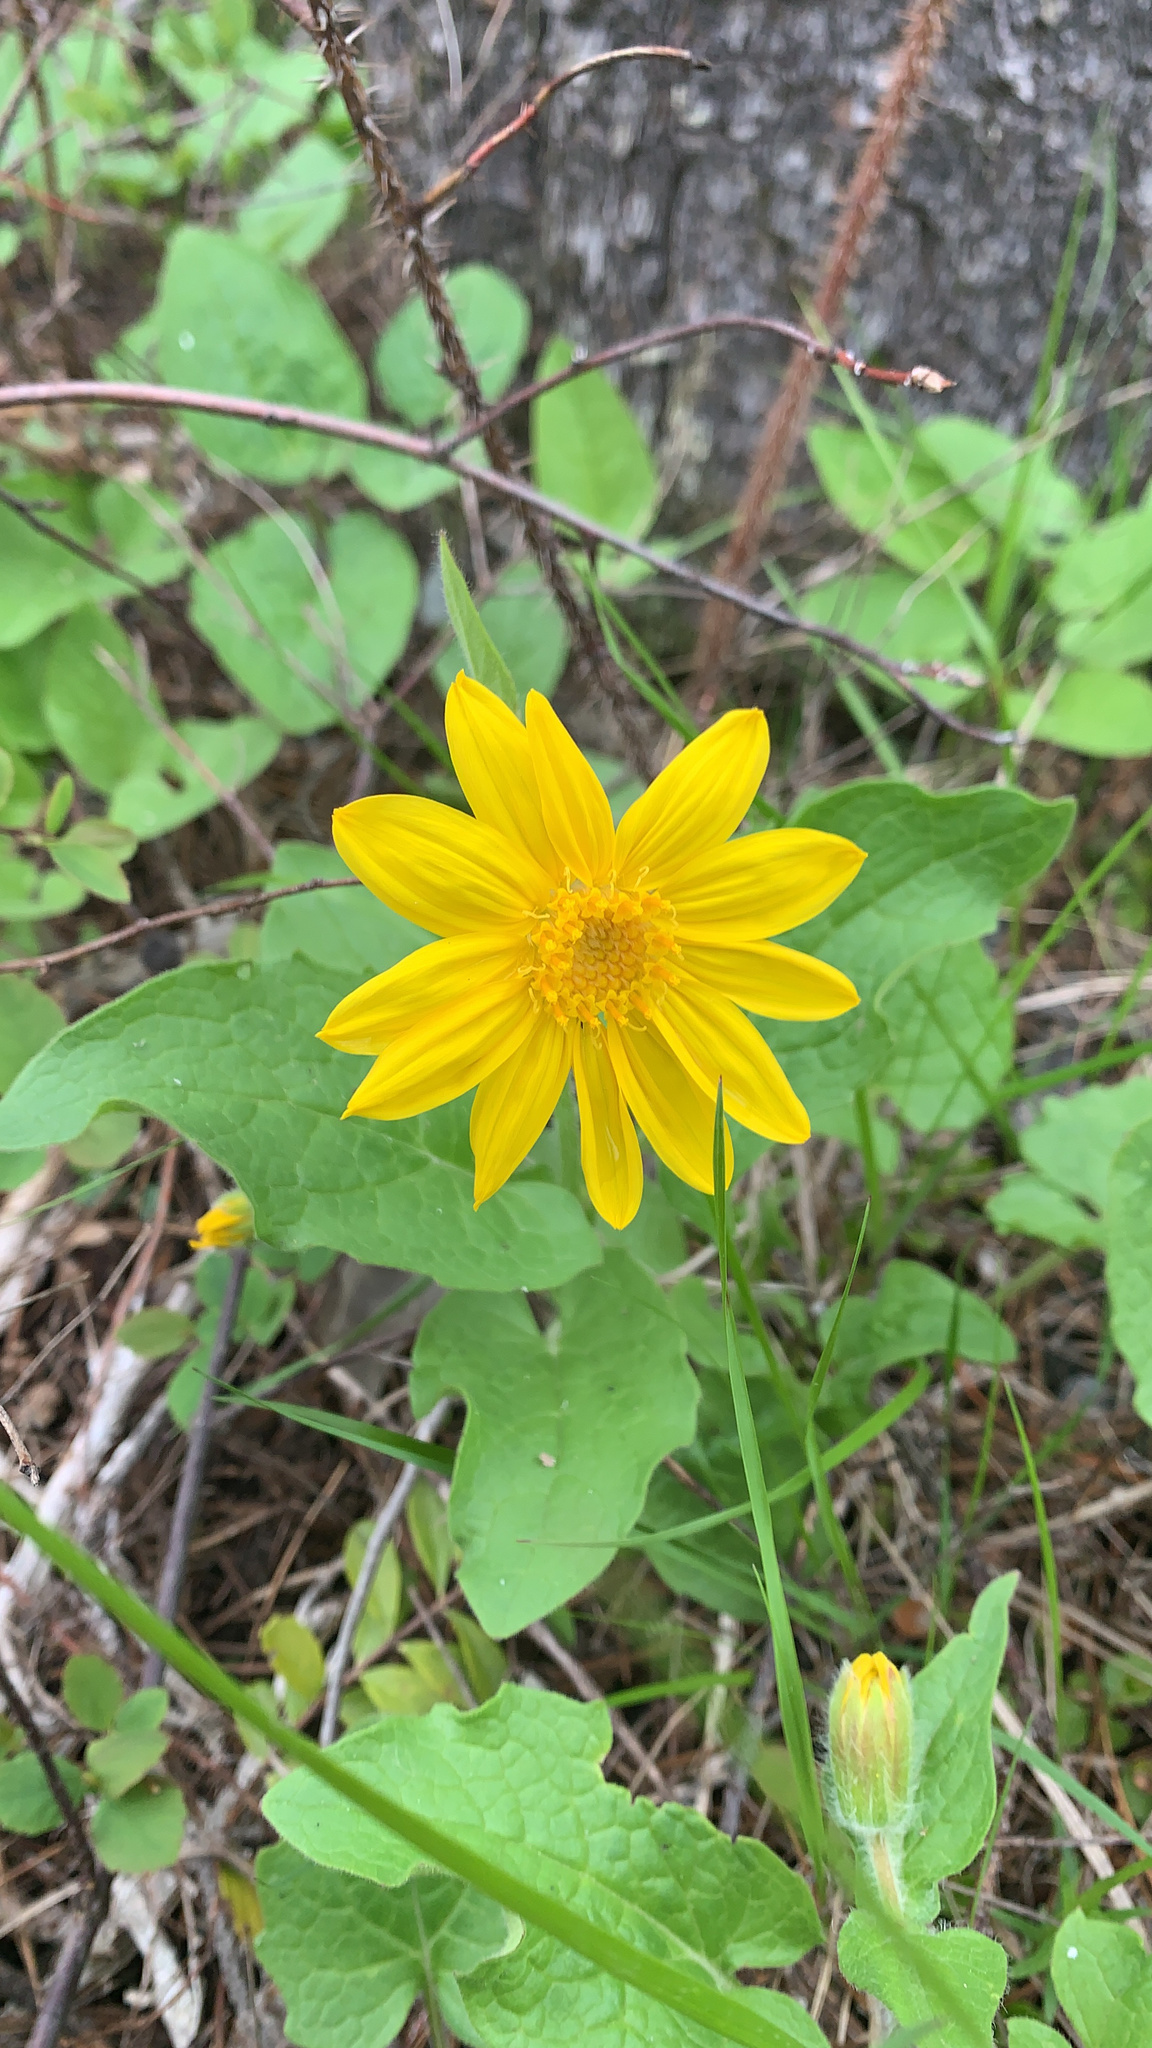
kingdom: Plantae
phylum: Tracheophyta
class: Magnoliopsida
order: Asterales
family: Asteraceae
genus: Arnica
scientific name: Arnica cordifolia
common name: Heart-leaf arnica
